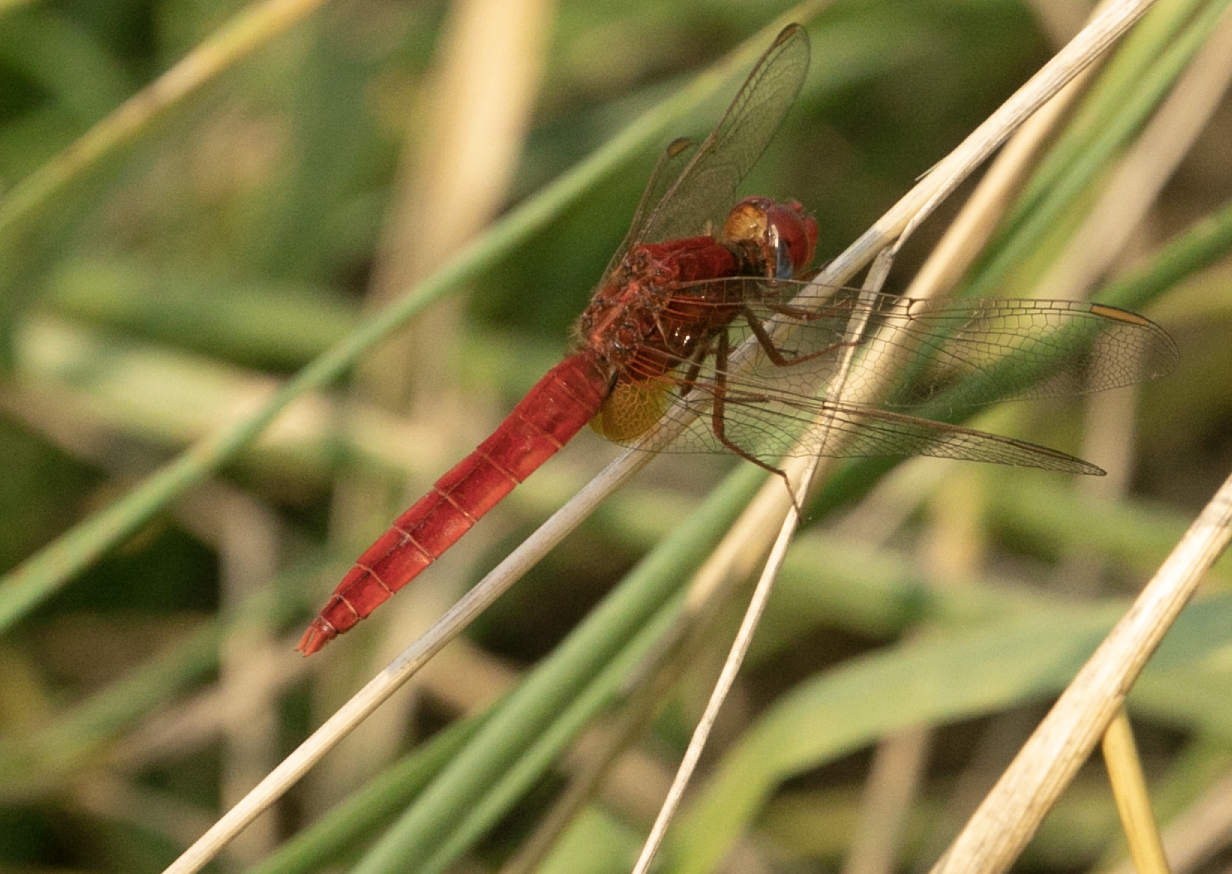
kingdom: Animalia
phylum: Arthropoda
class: Insecta
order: Odonata
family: Libellulidae
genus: Crocothemis
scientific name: Crocothemis erythraea
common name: Scarlet dragonfly
